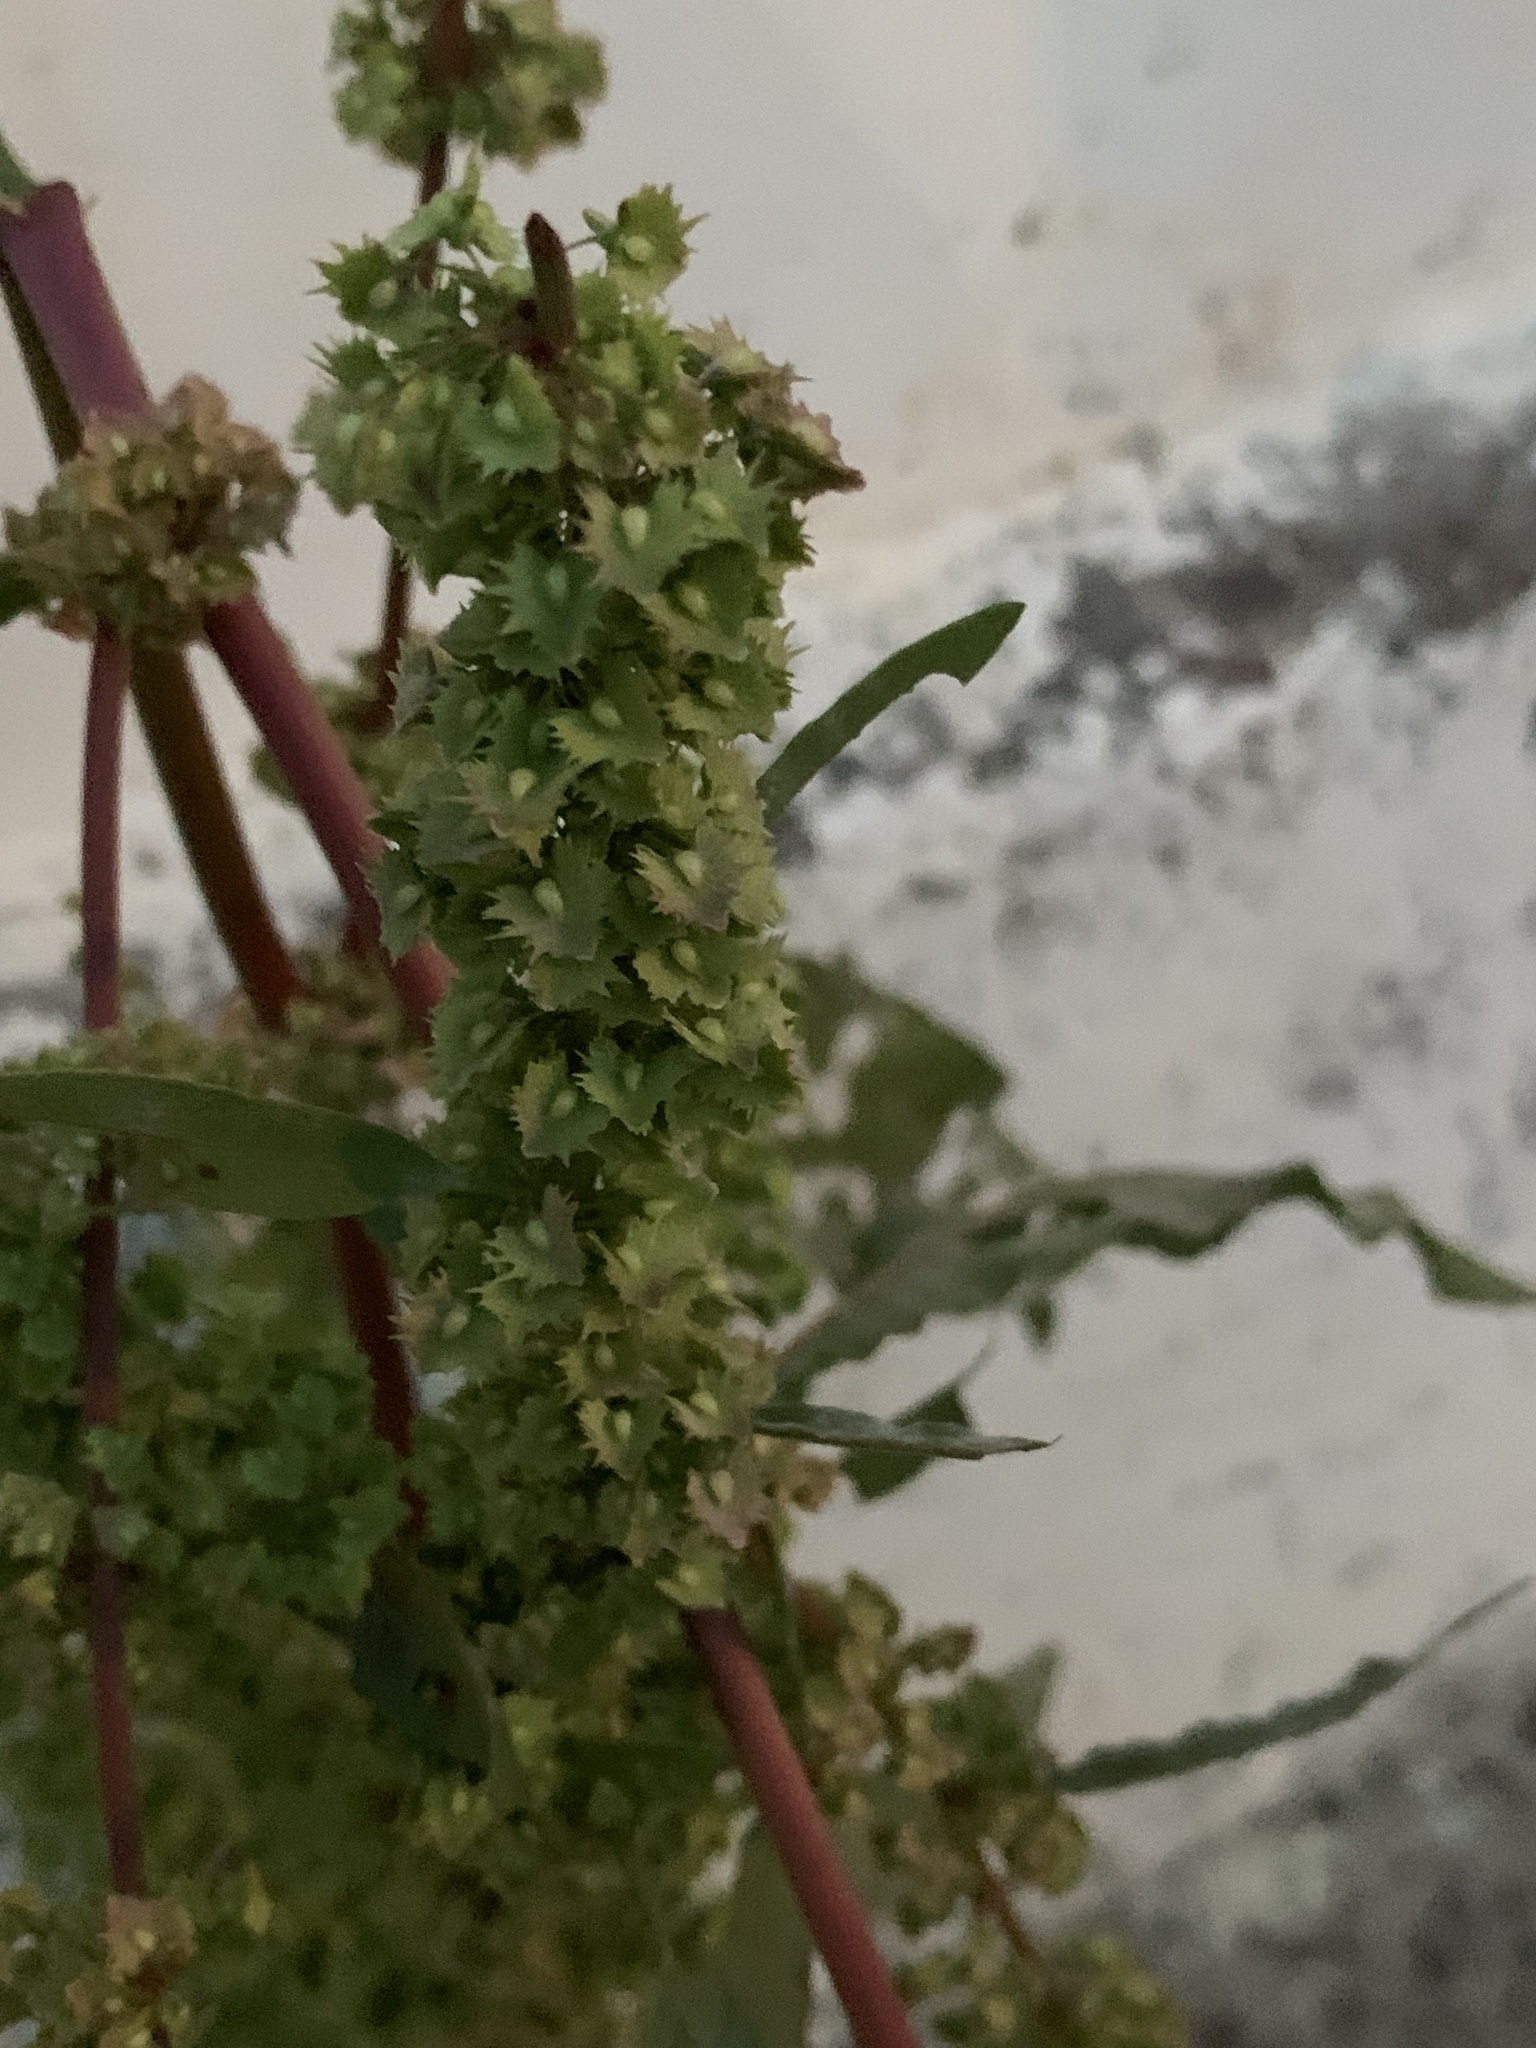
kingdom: Plantae
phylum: Tracheophyta
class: Magnoliopsida
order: Caryophyllales
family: Polygonaceae
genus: Rumex
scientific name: Rumex stenophyllus
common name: Narrowleaf dock
